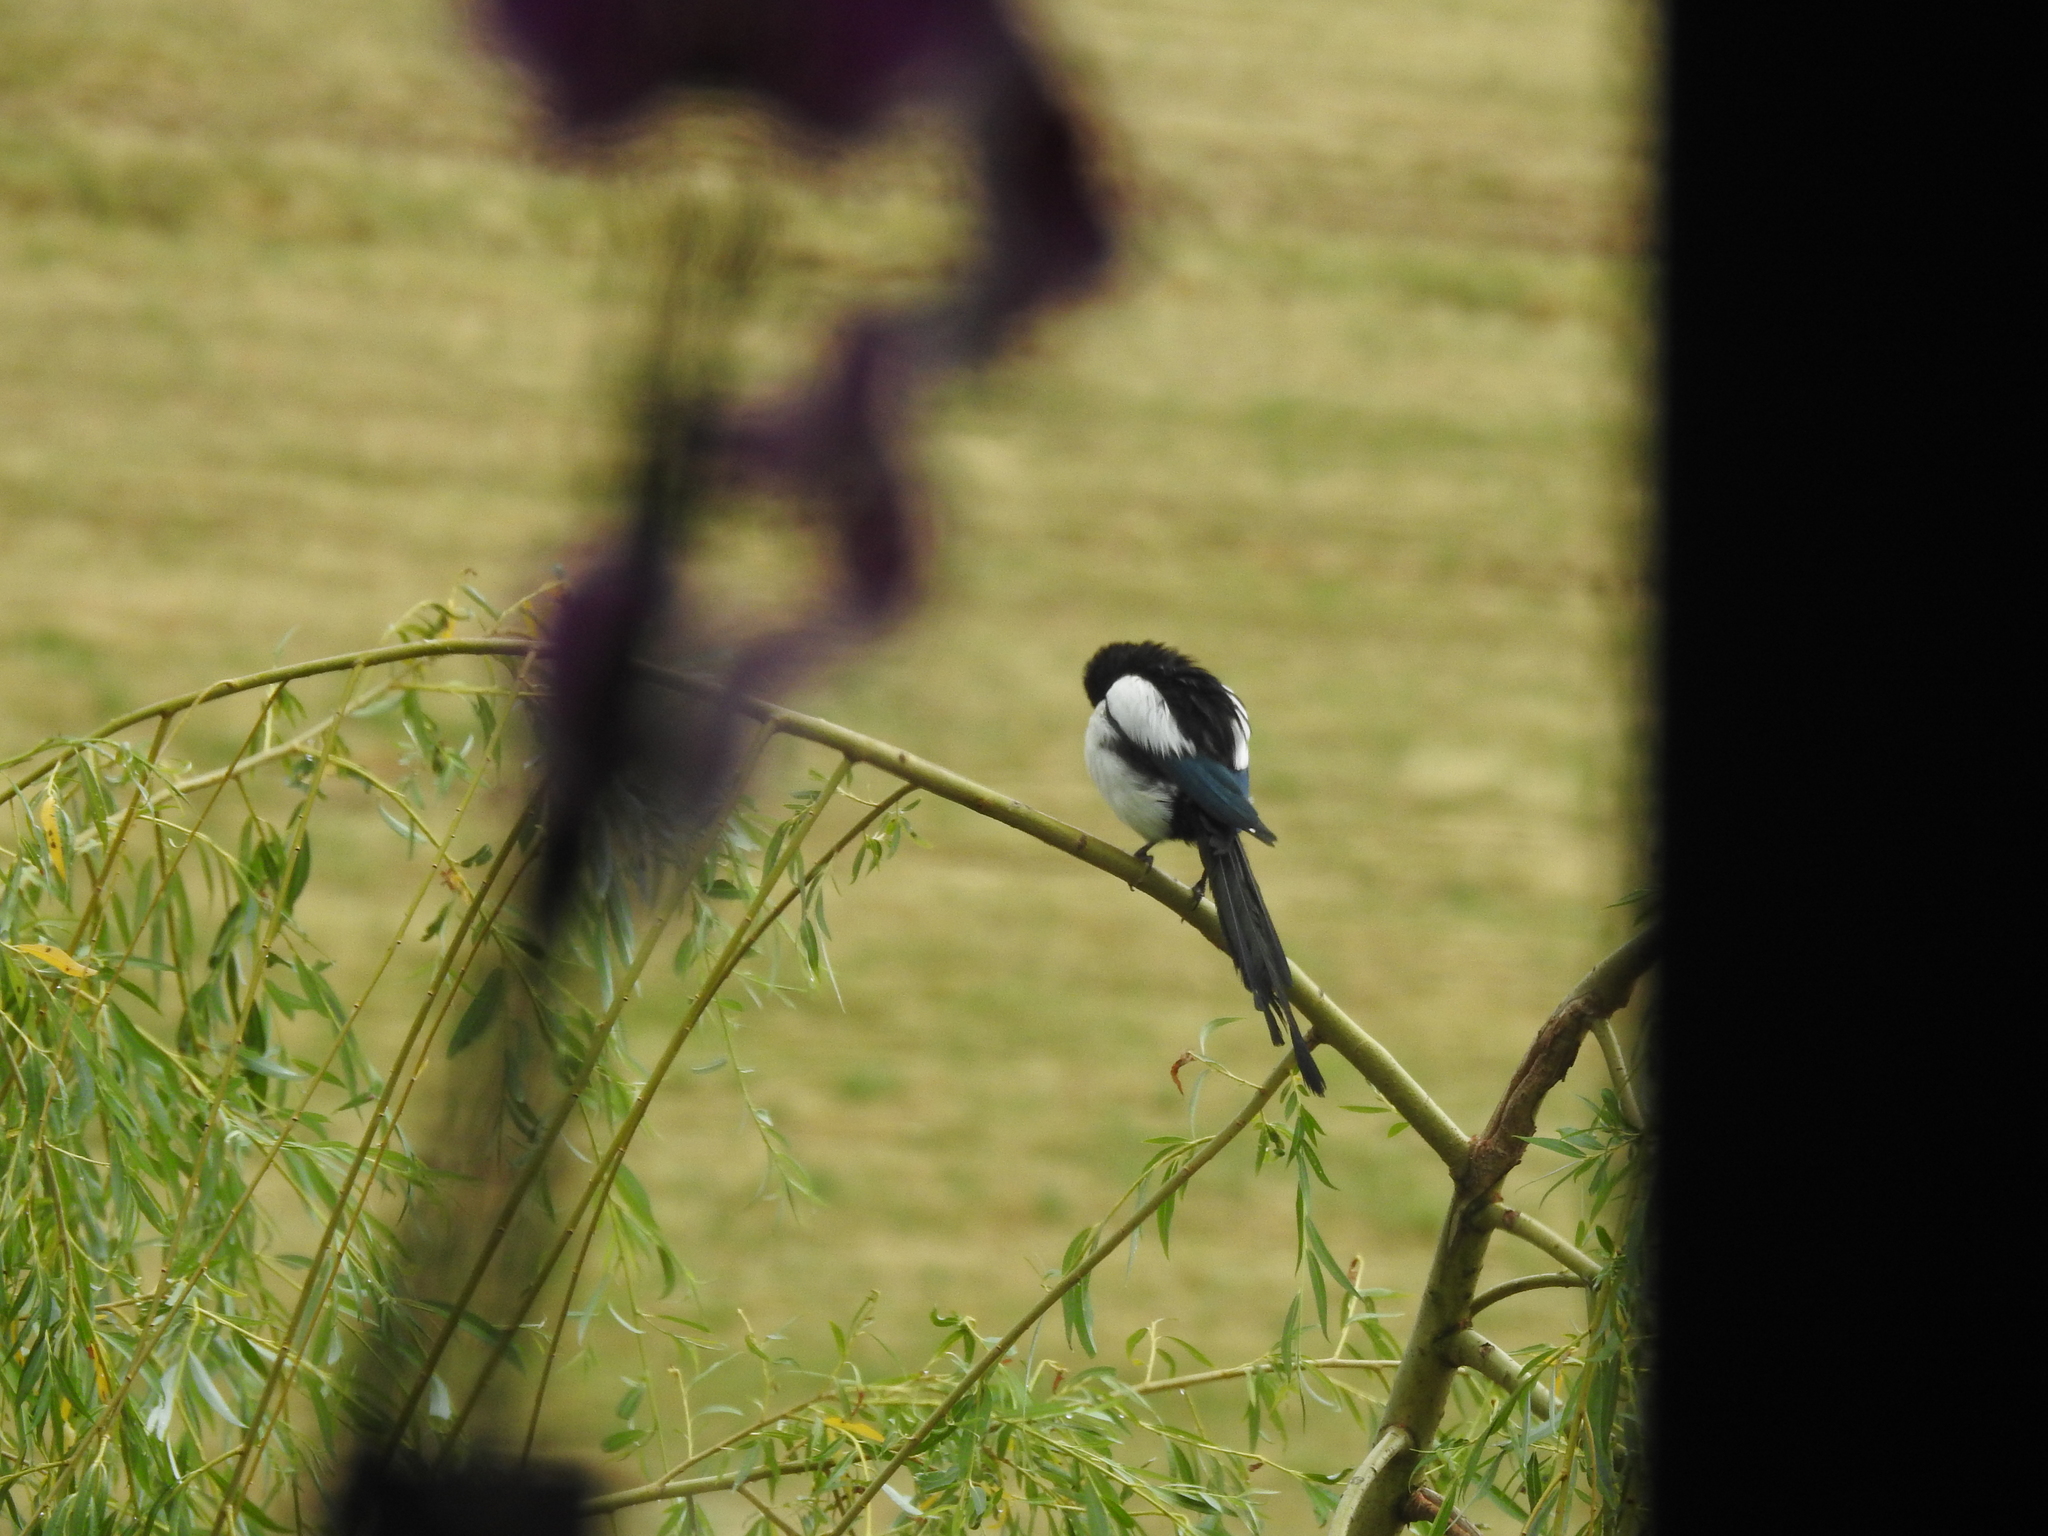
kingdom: Animalia
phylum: Chordata
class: Aves
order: Passeriformes
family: Corvidae
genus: Pica
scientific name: Pica pica
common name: Eurasian magpie
